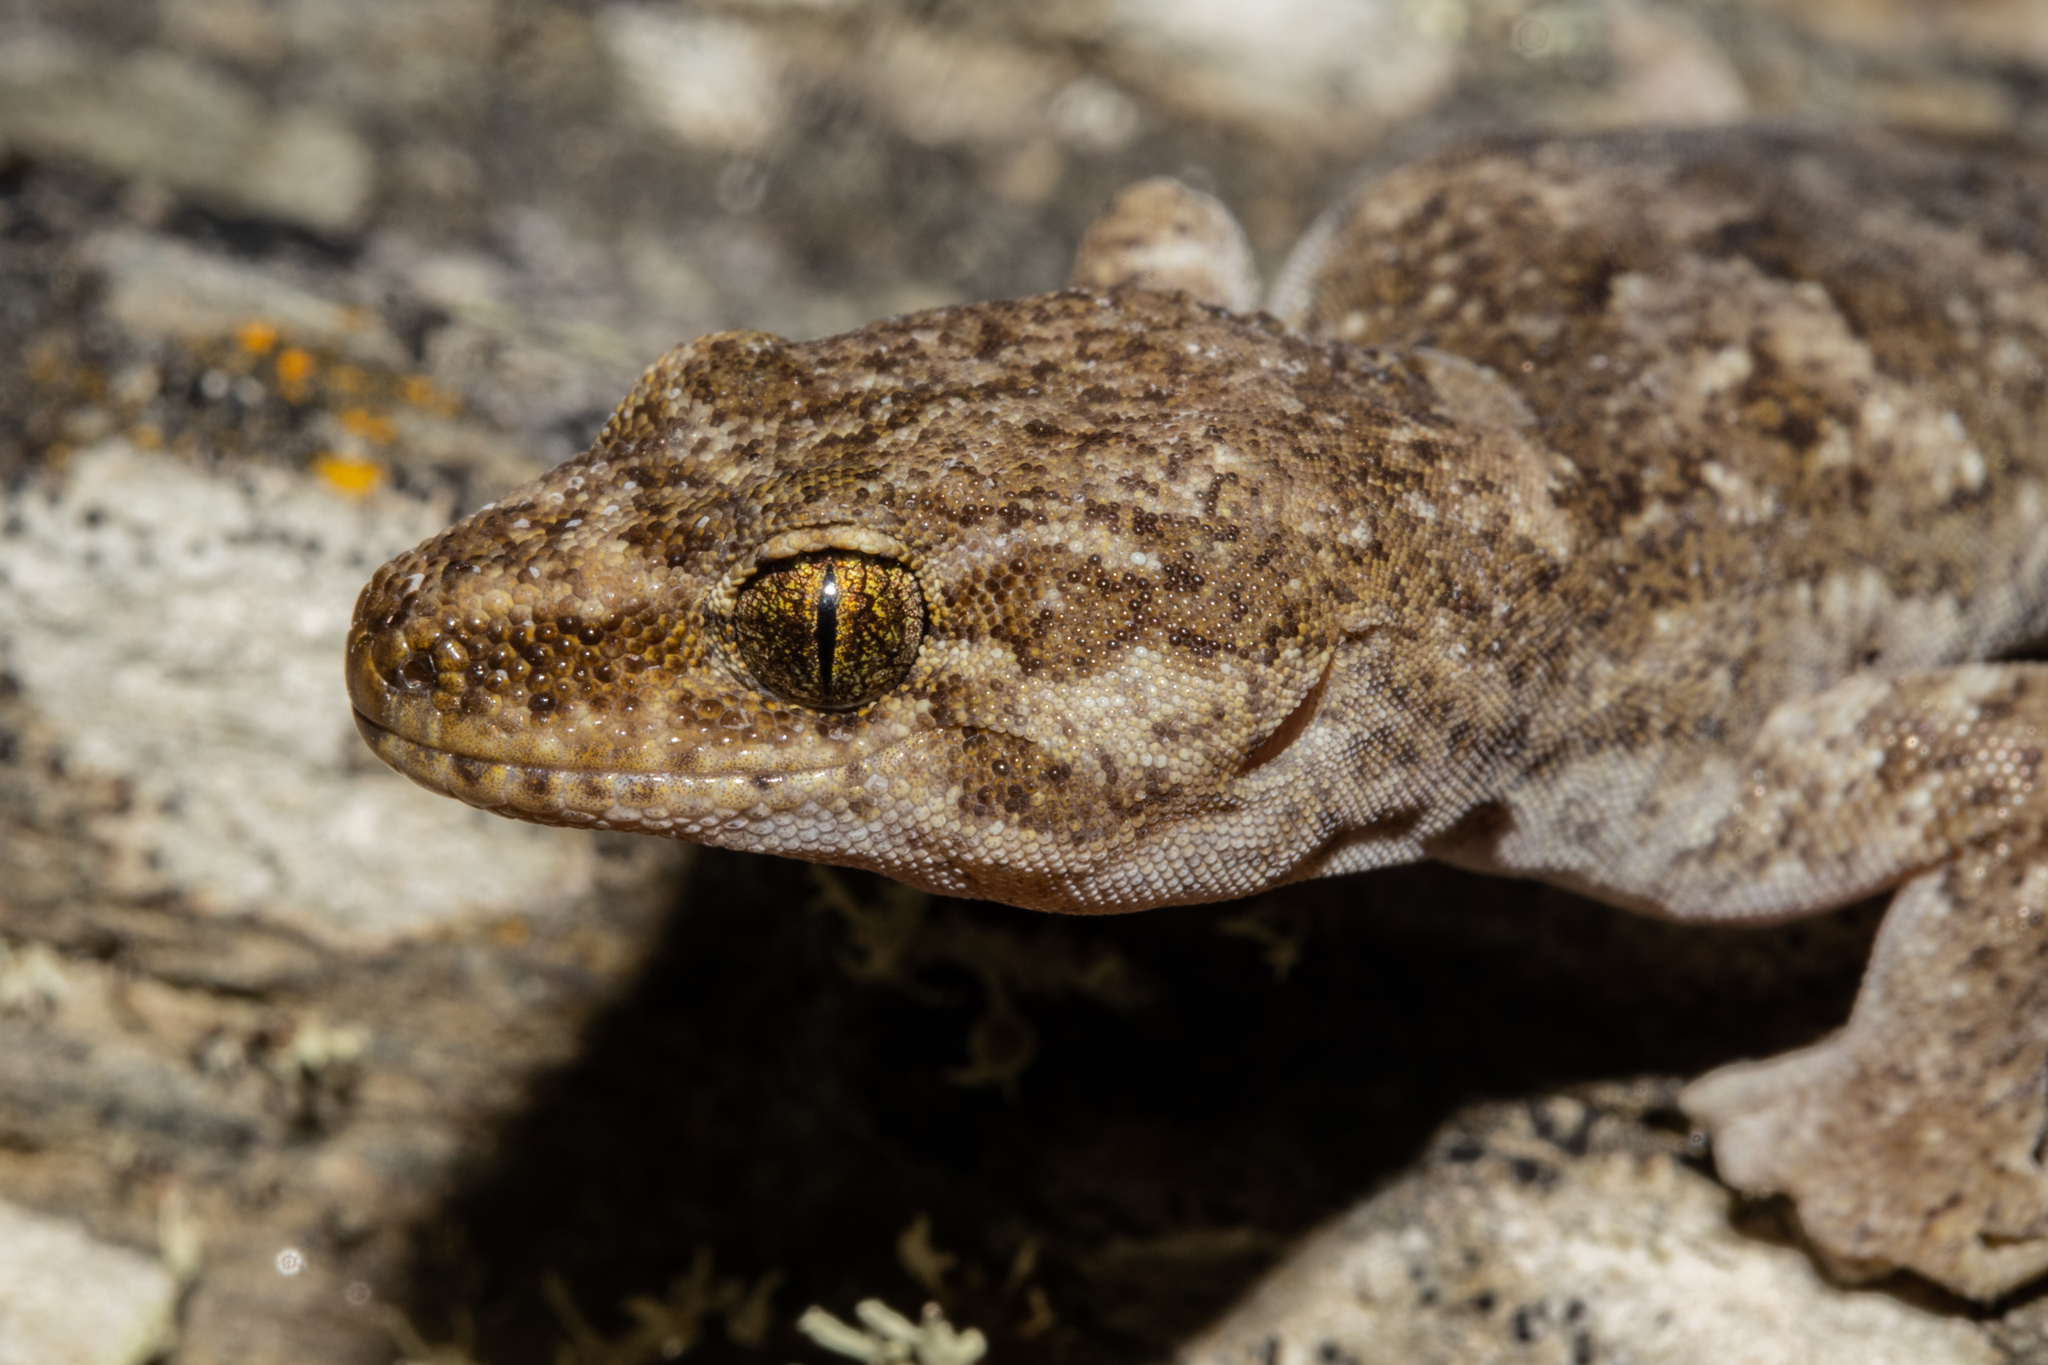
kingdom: Animalia
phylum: Chordata
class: Squamata
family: Diplodactylidae
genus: Woodworthia
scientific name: Woodworthia
